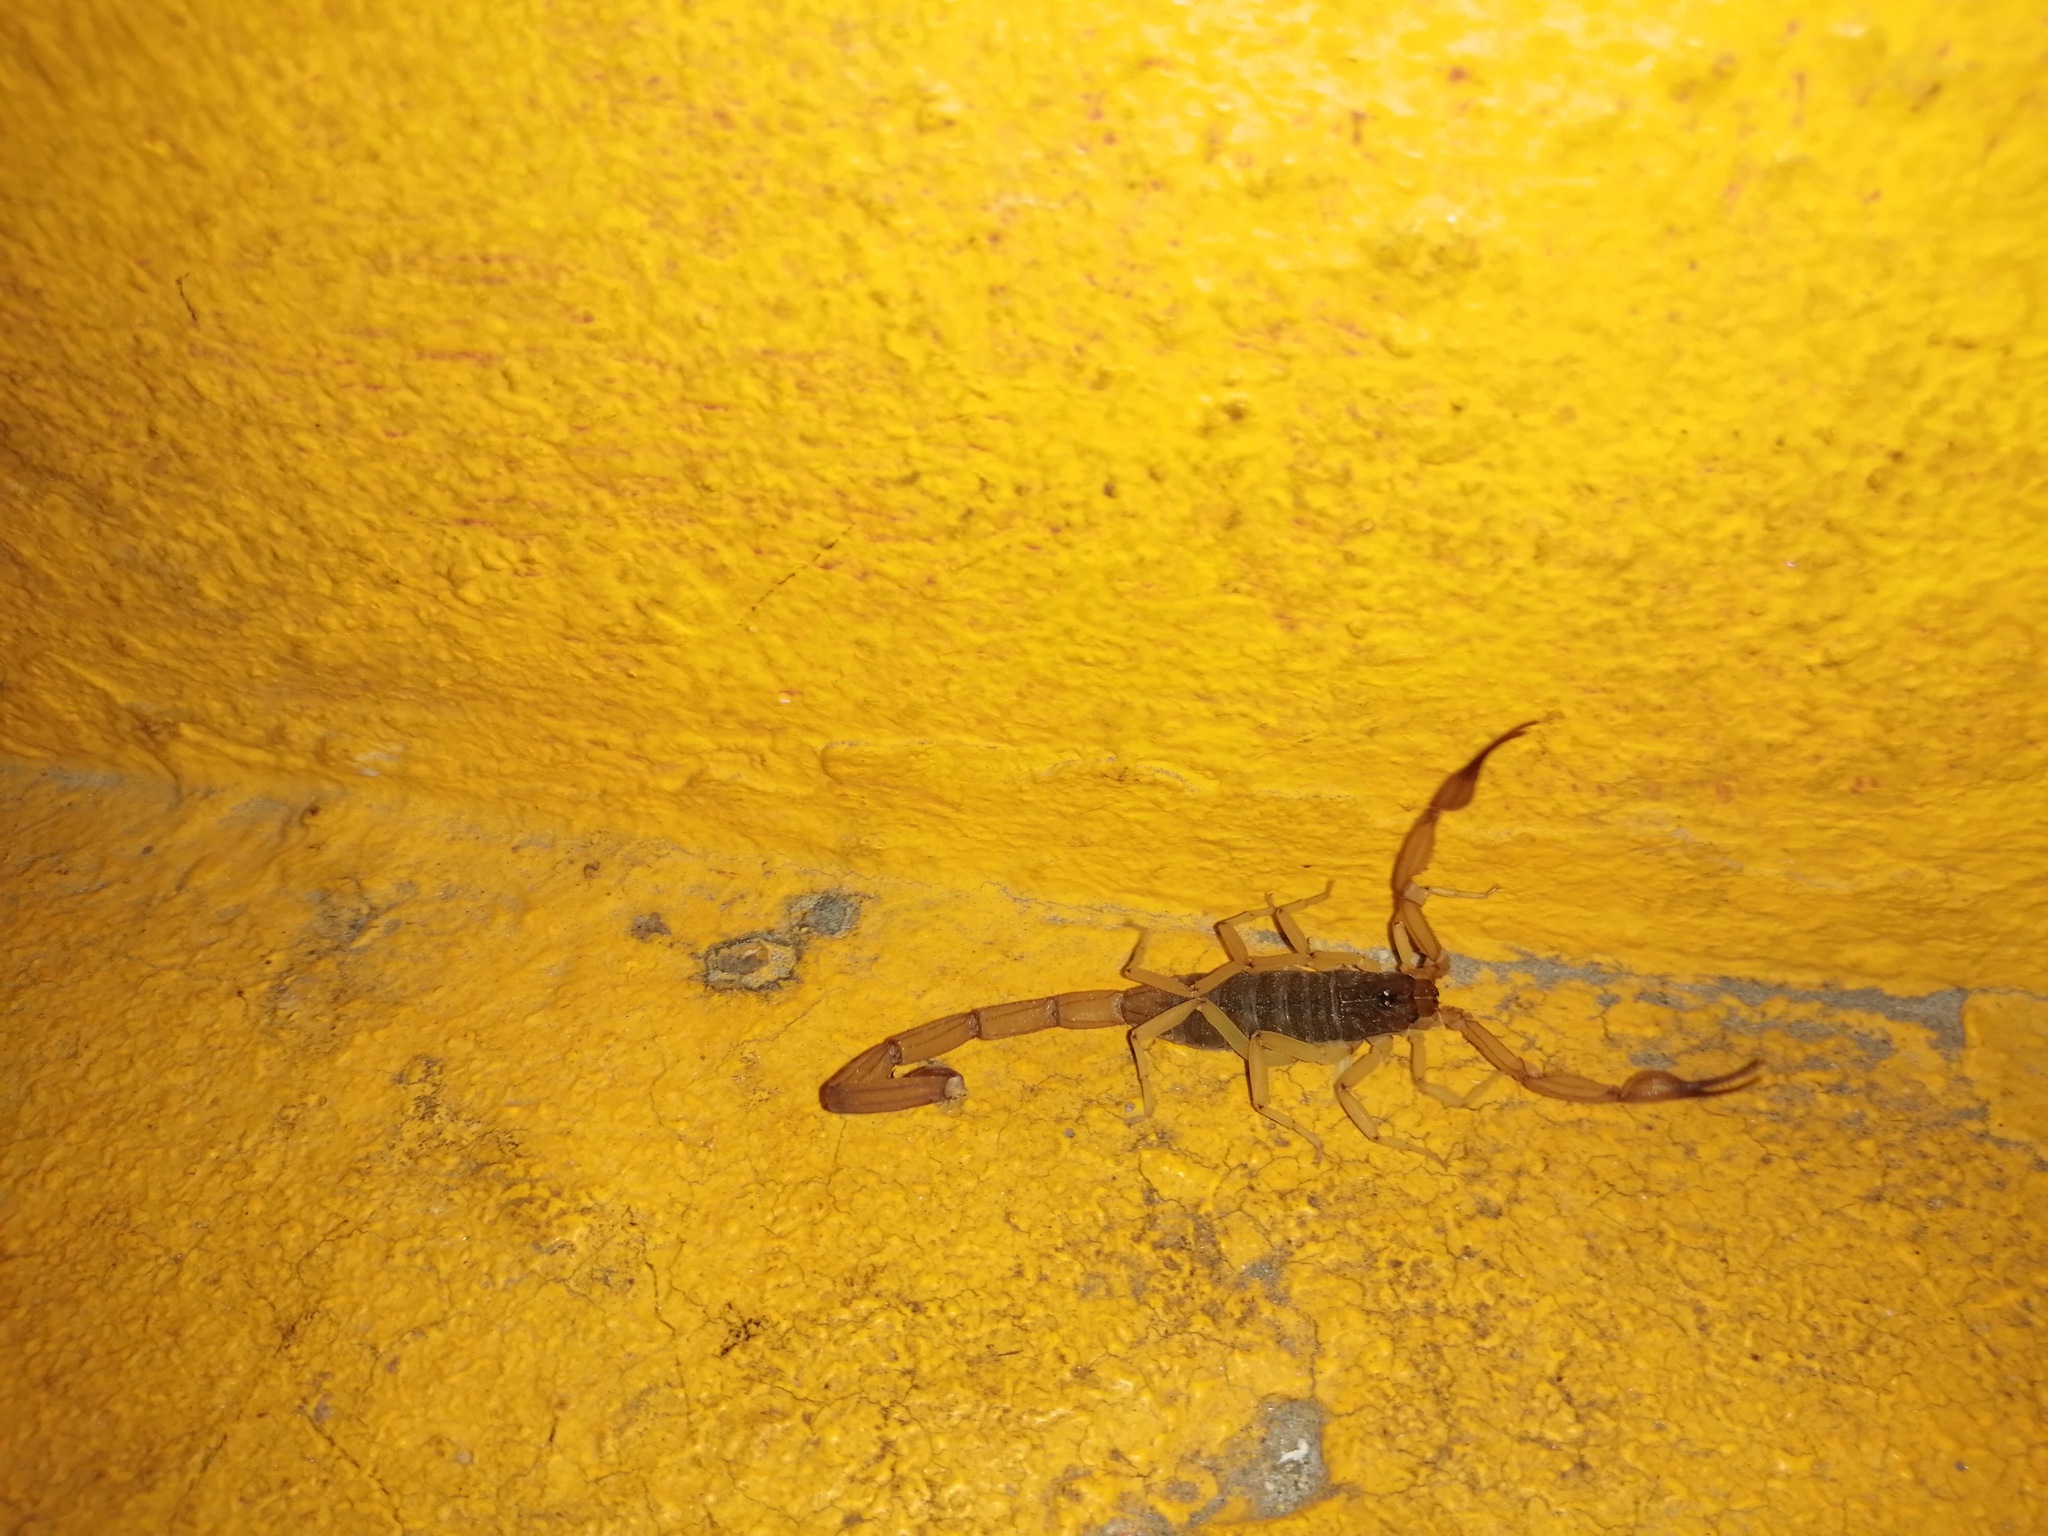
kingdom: Animalia
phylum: Arthropoda
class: Arachnida
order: Scorpiones
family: Buthidae
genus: Centruroides
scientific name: Centruroides ochraceus
